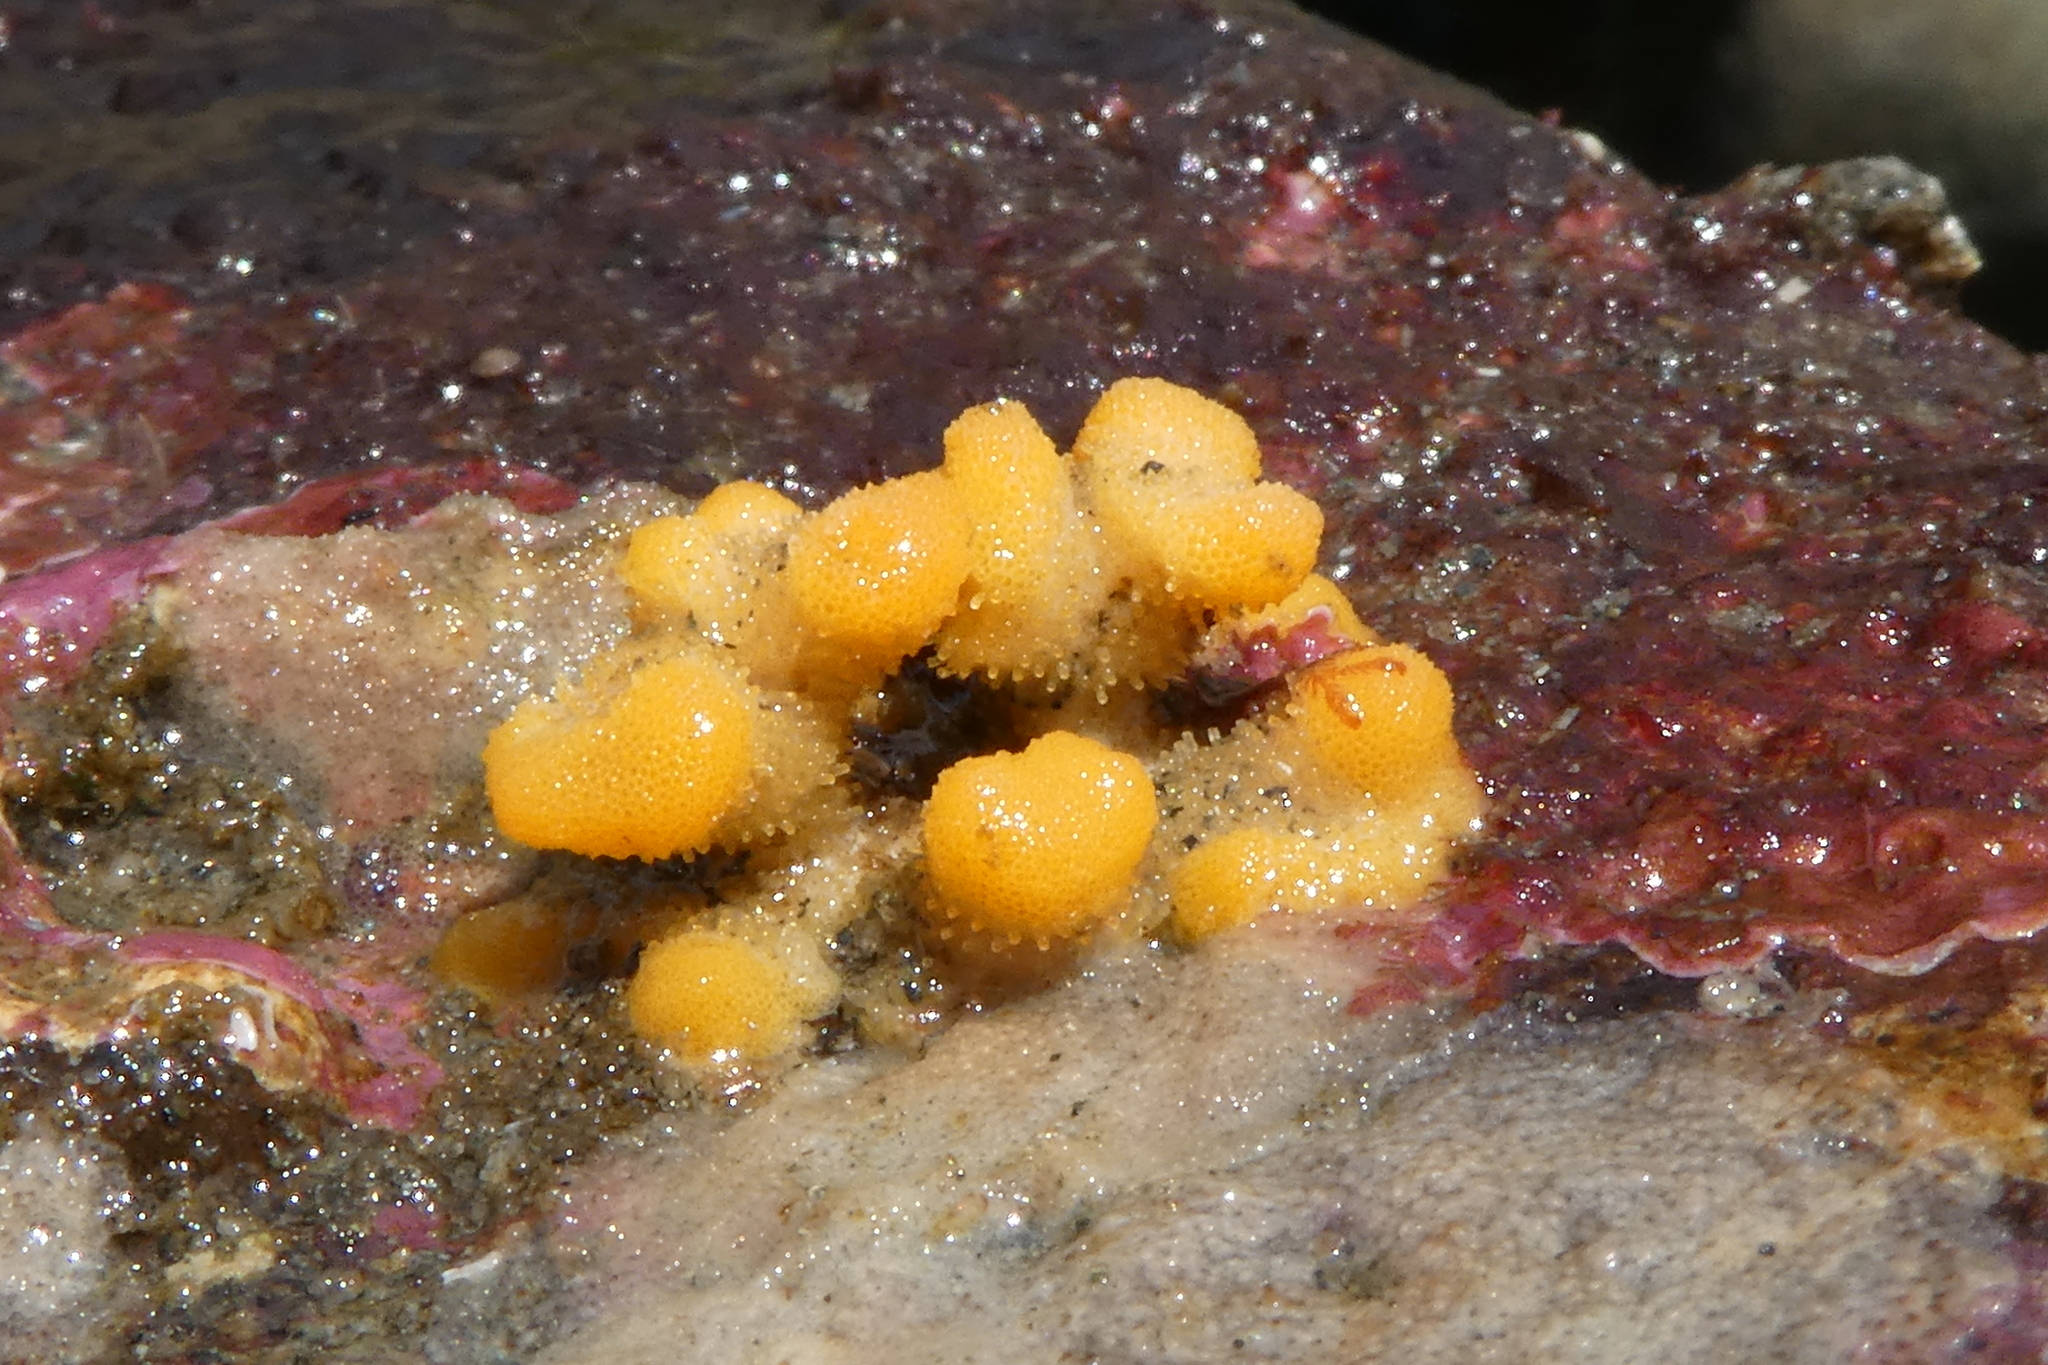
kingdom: Animalia
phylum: Bryozoa
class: Stenolaemata
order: Cyclostomatida
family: Heteroporidae
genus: Heteropora
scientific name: Heteropora pacifica
